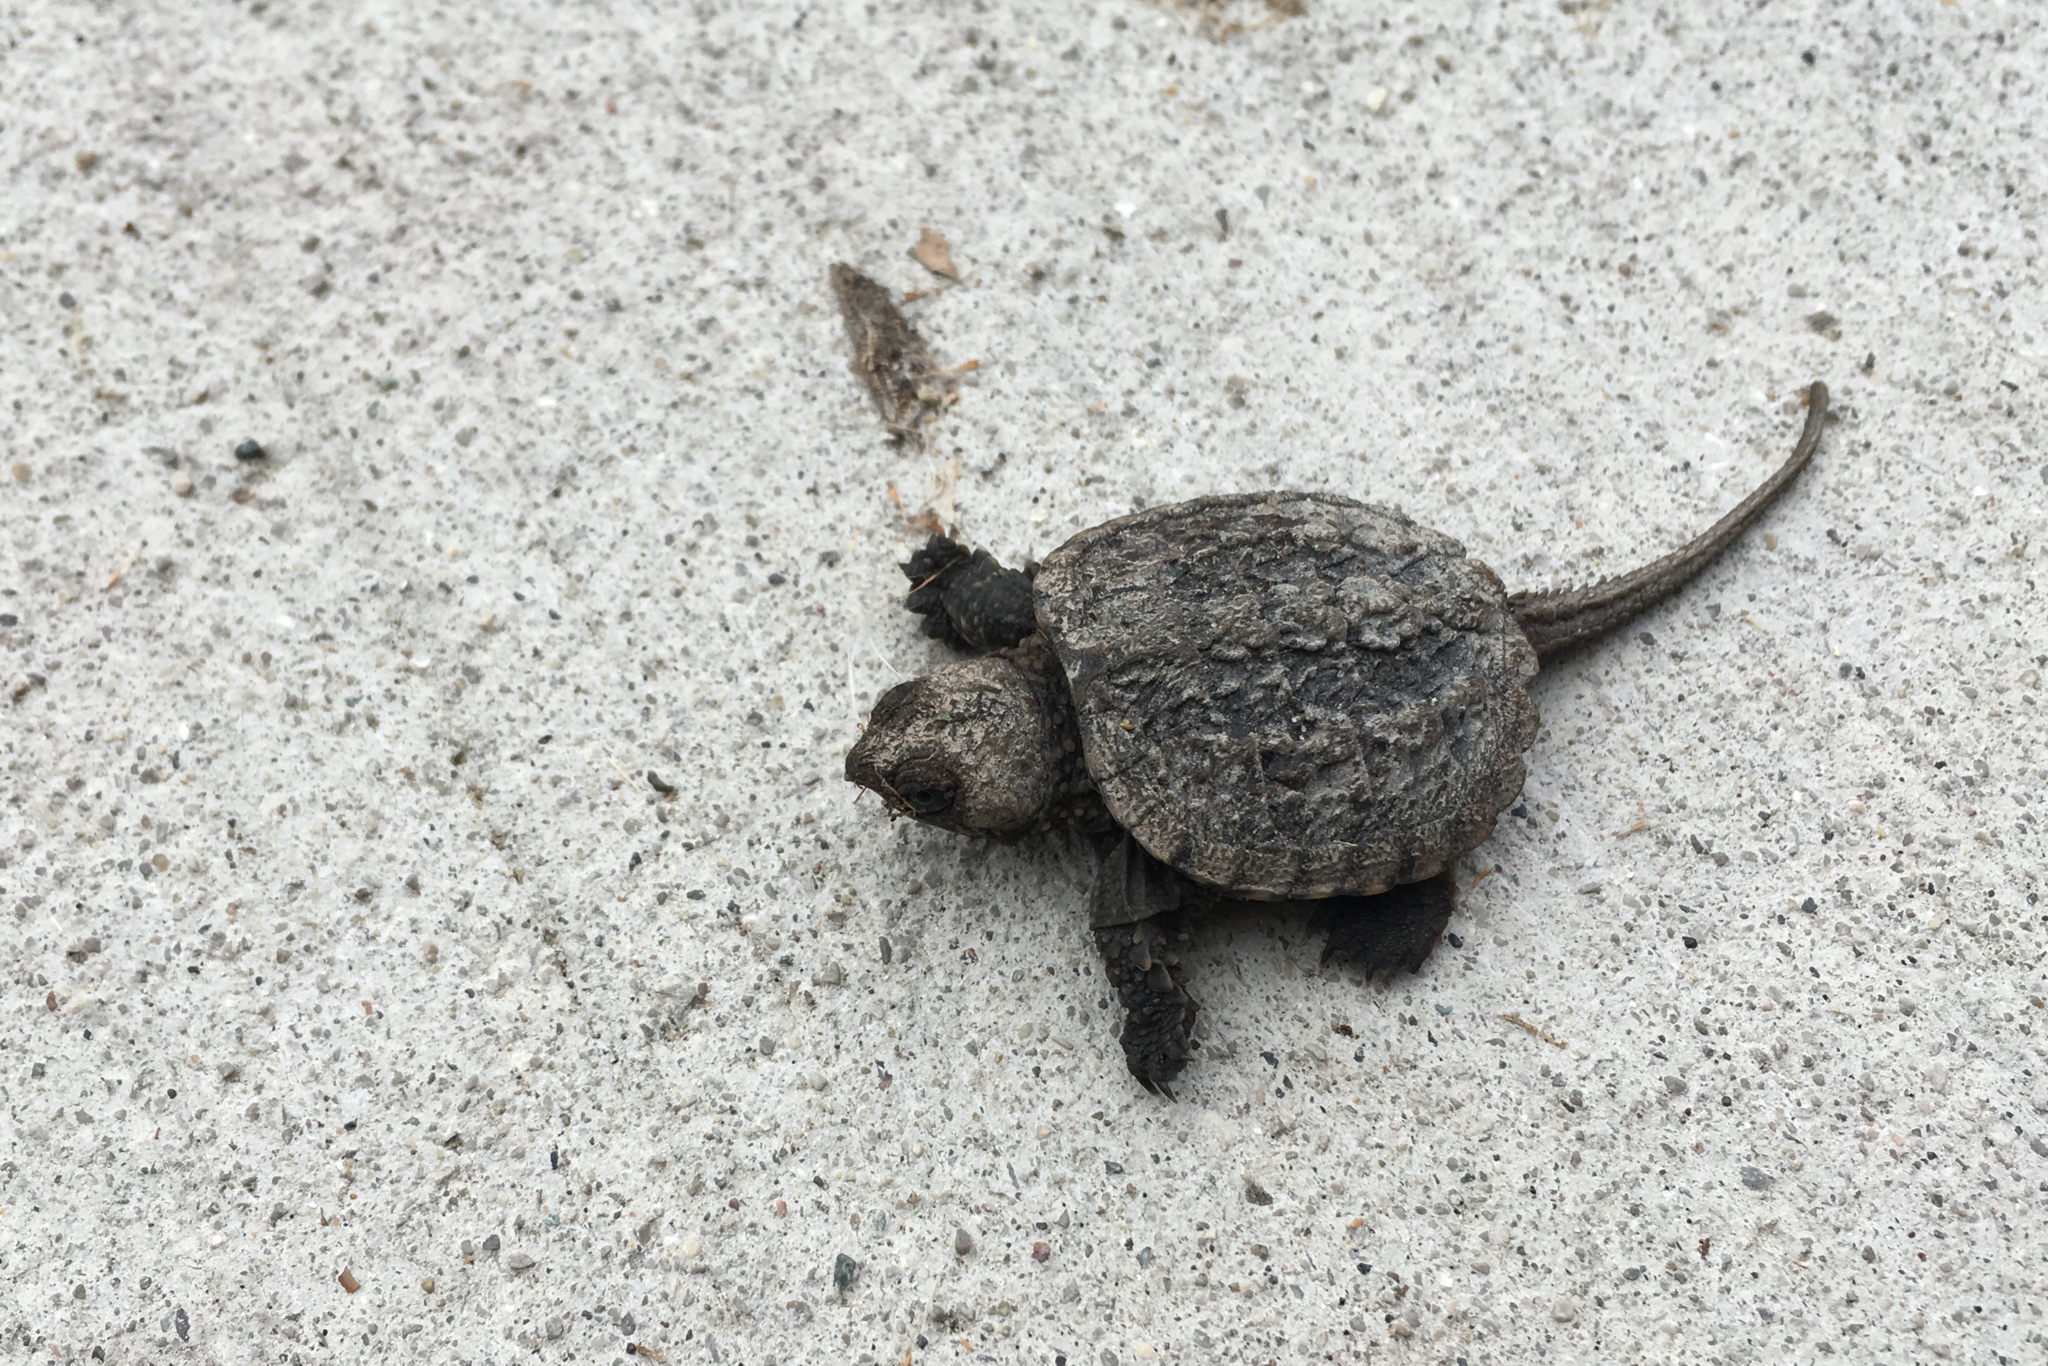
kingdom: Animalia
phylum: Chordata
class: Testudines
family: Chelydridae
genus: Chelydra
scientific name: Chelydra serpentina
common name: Common snapping turtle
